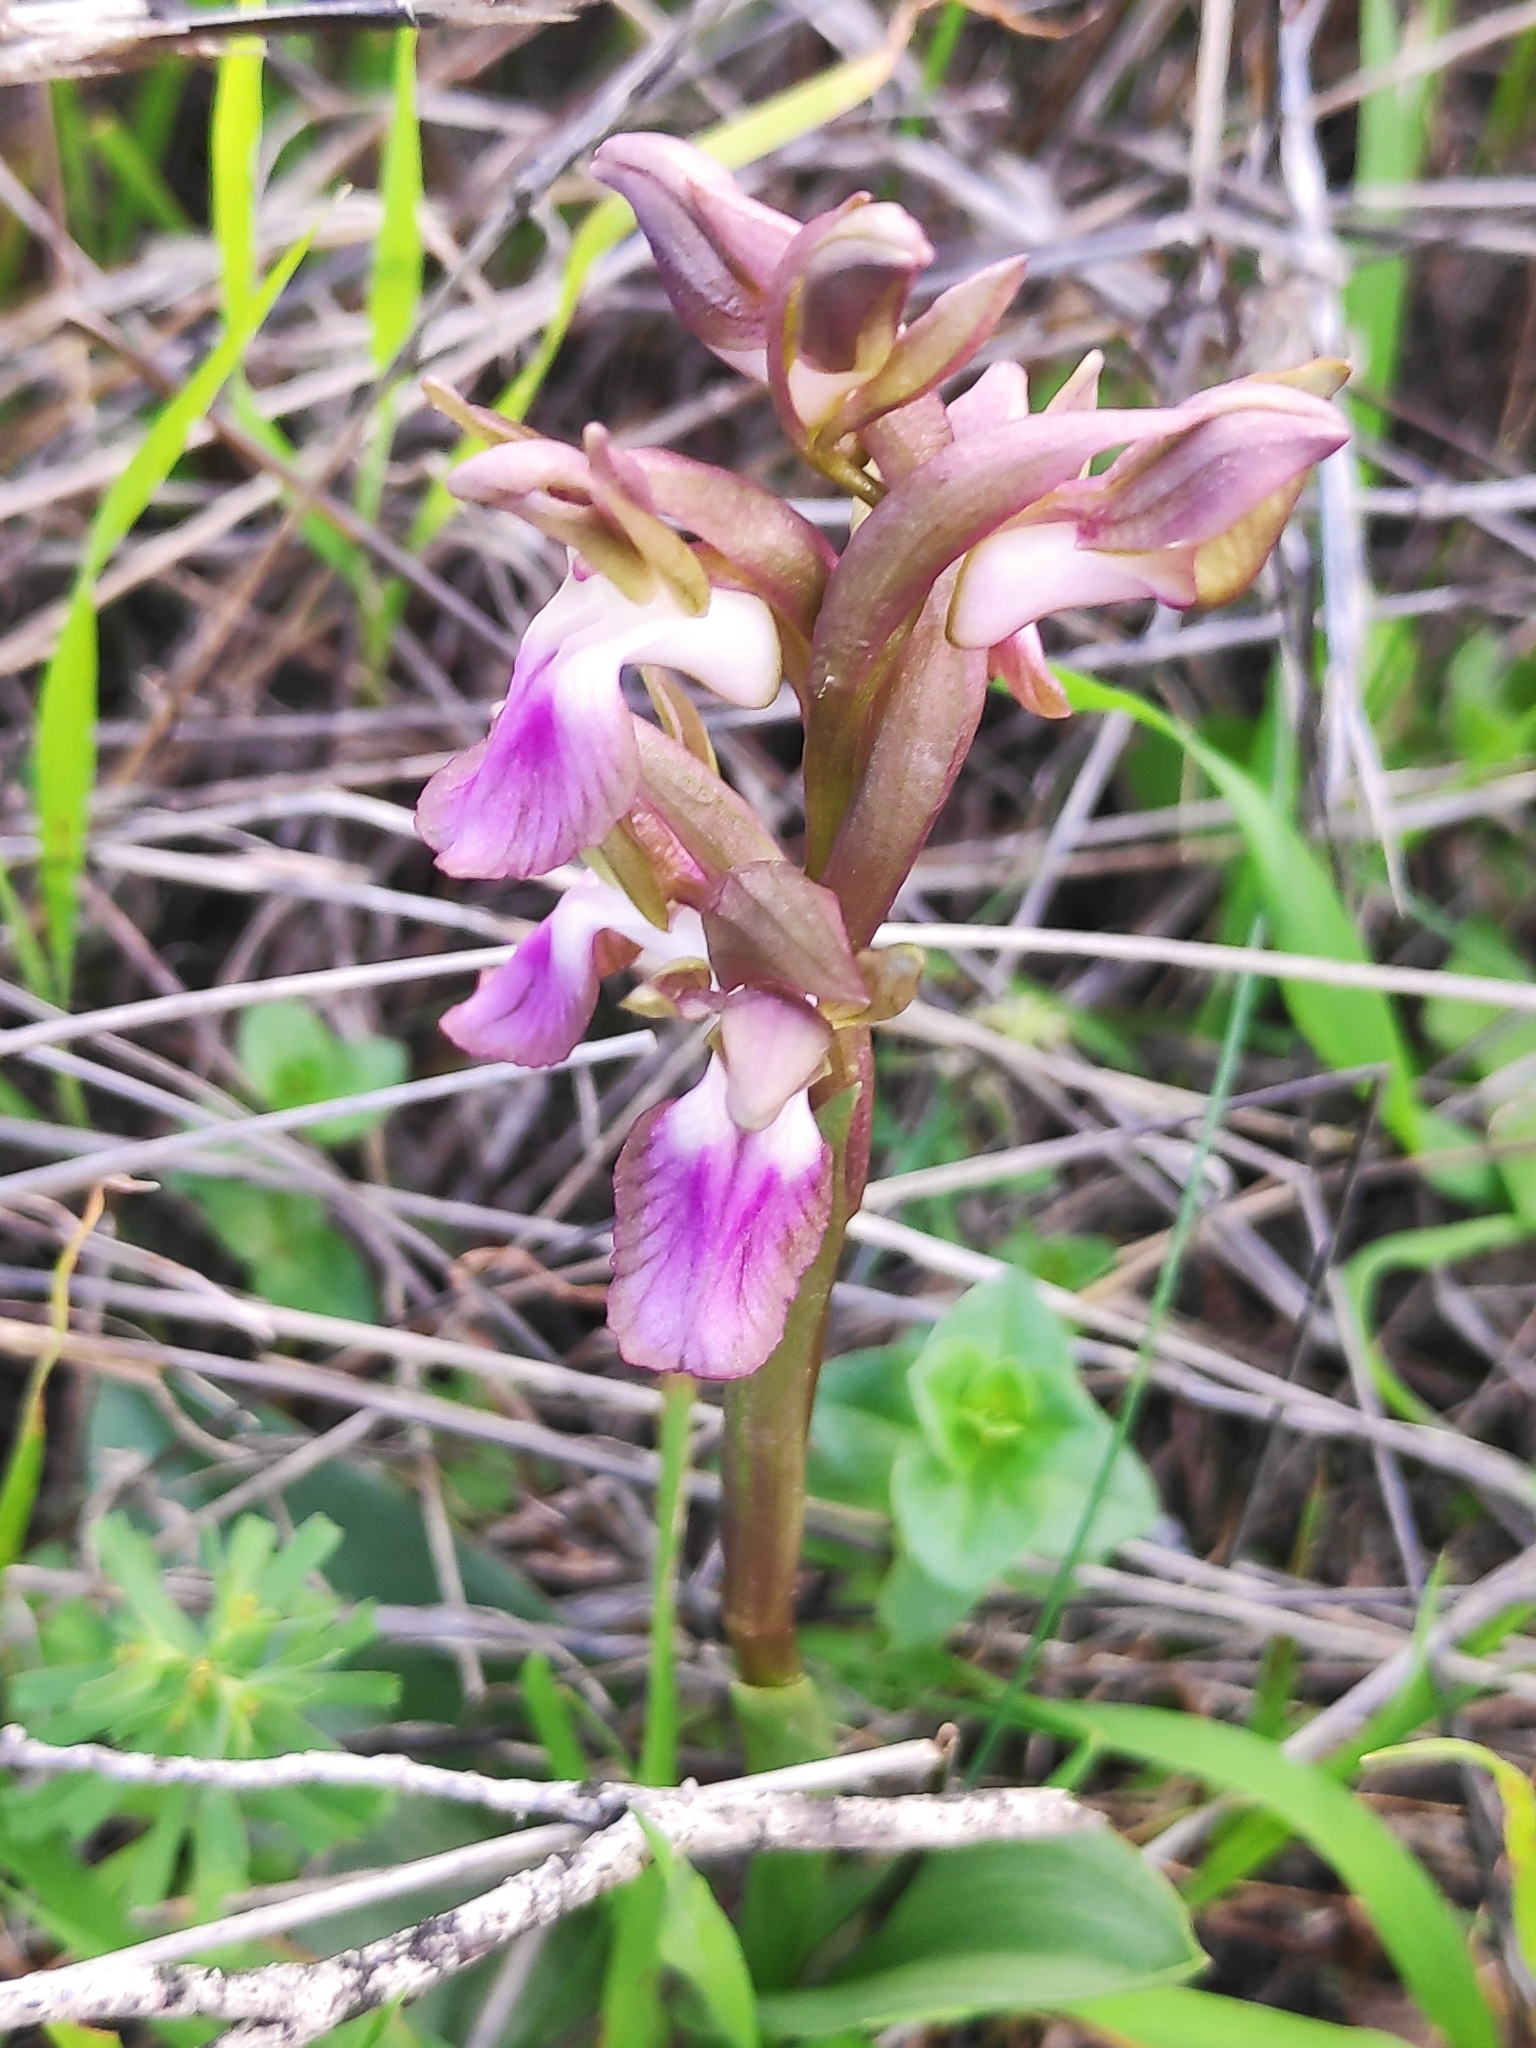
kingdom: Plantae
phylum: Tracheophyta
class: Liliopsida
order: Asparagales
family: Orchidaceae
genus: Anacamptis
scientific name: Anacamptis collina
